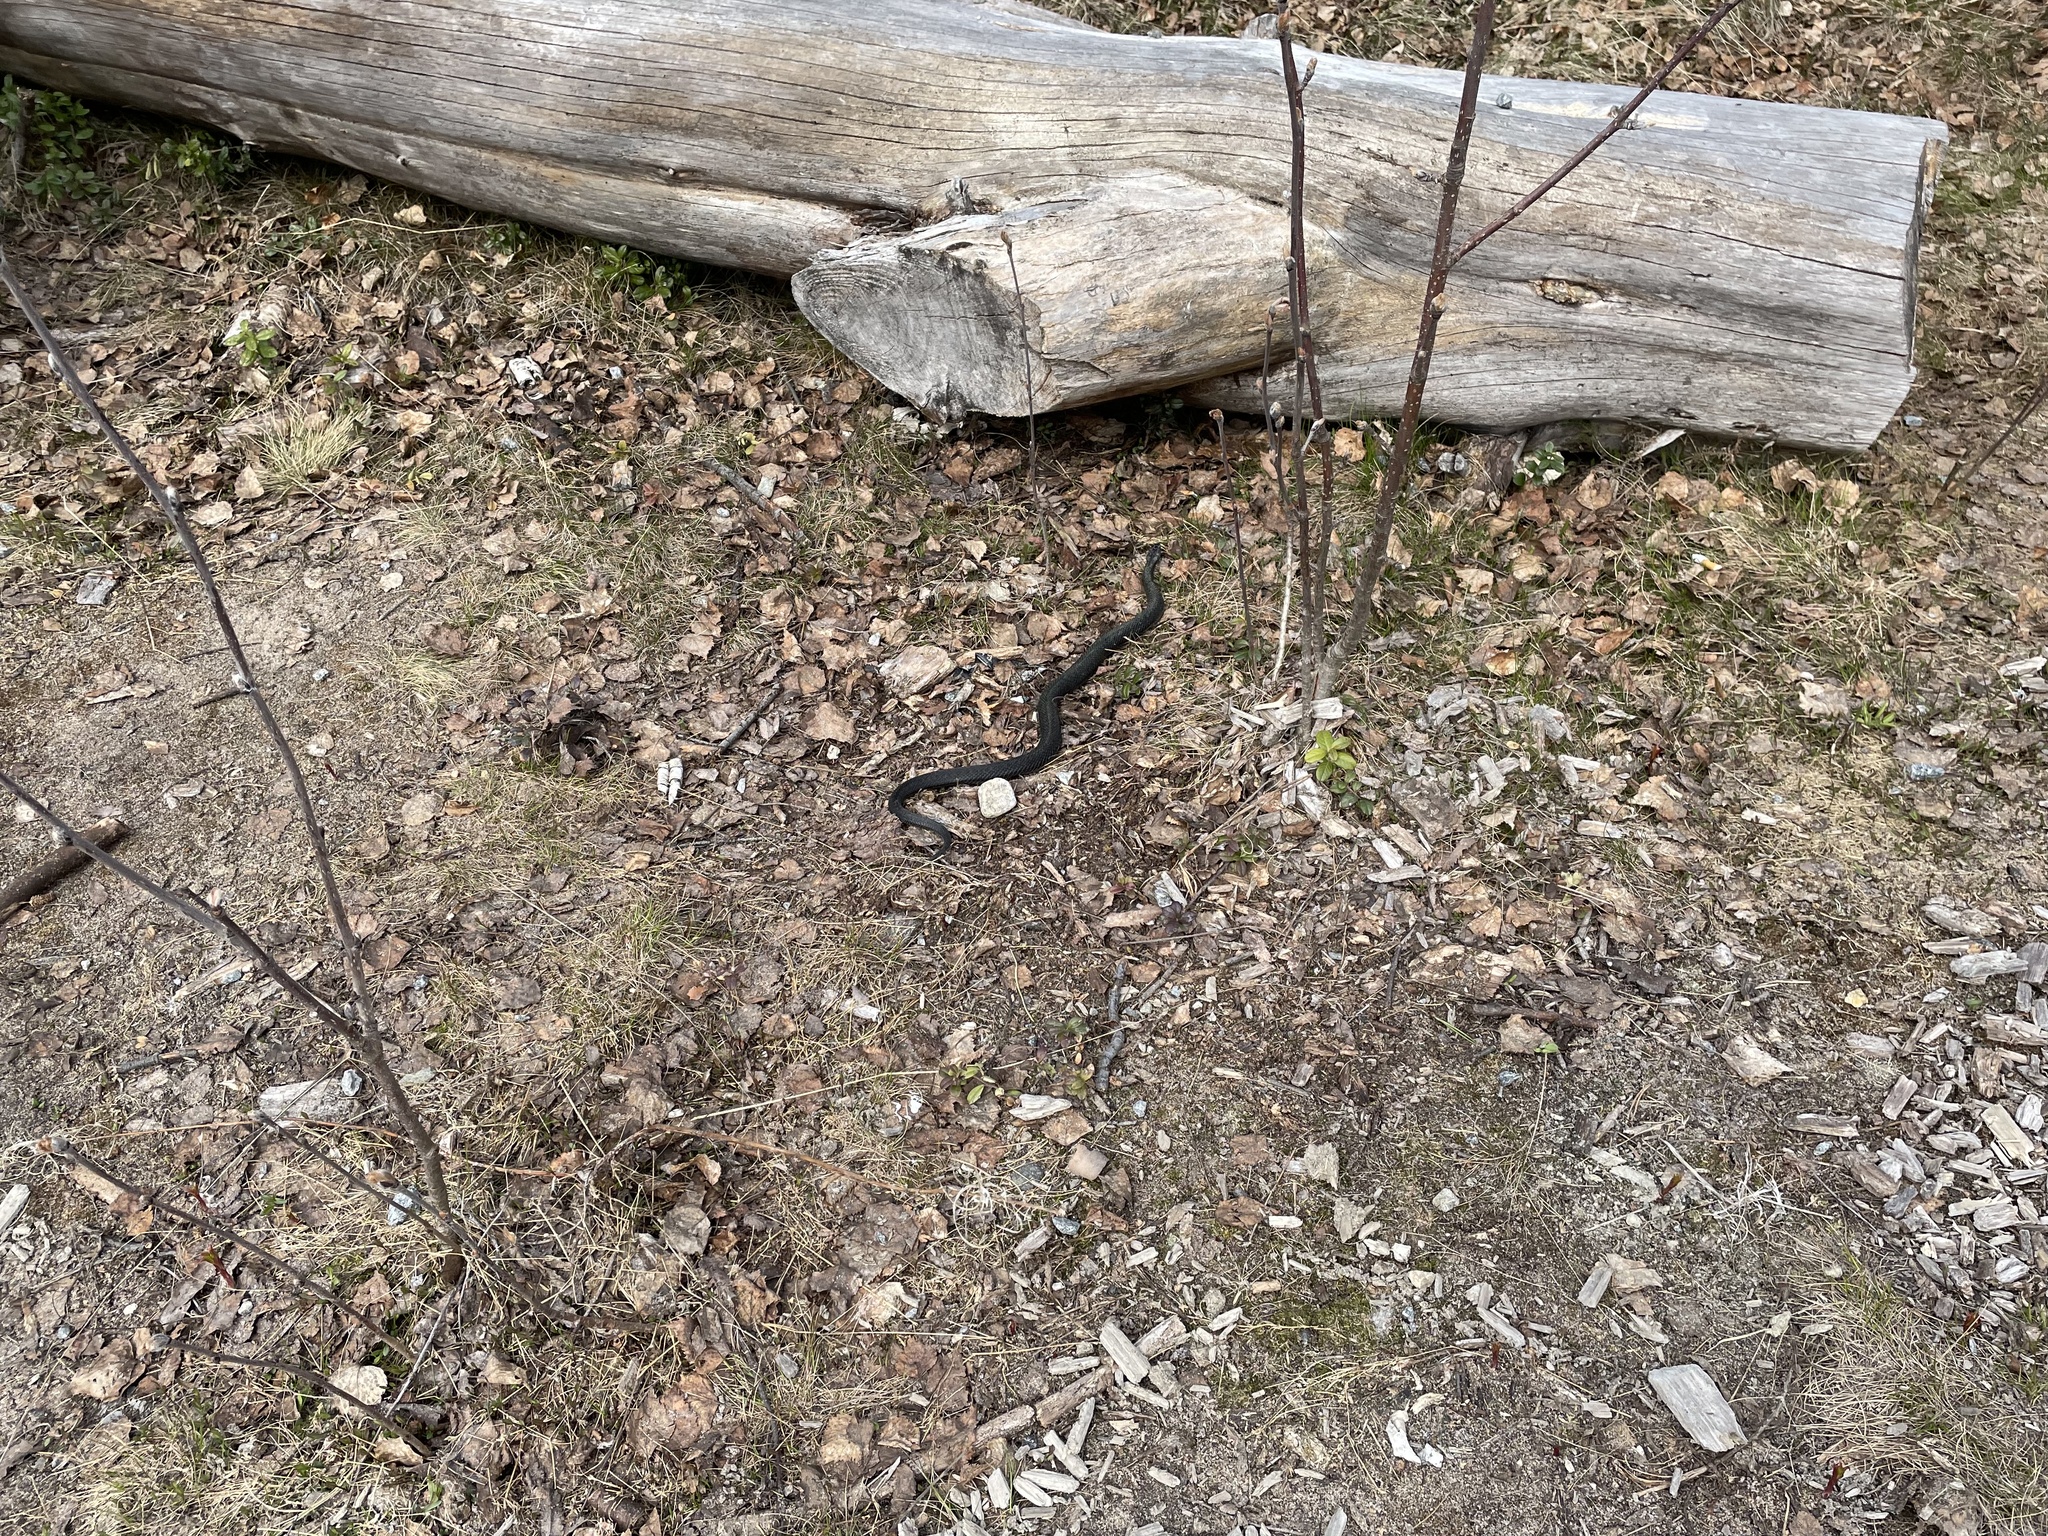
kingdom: Animalia
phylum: Chordata
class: Squamata
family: Viperidae
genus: Vipera
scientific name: Vipera berus
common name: Adder
